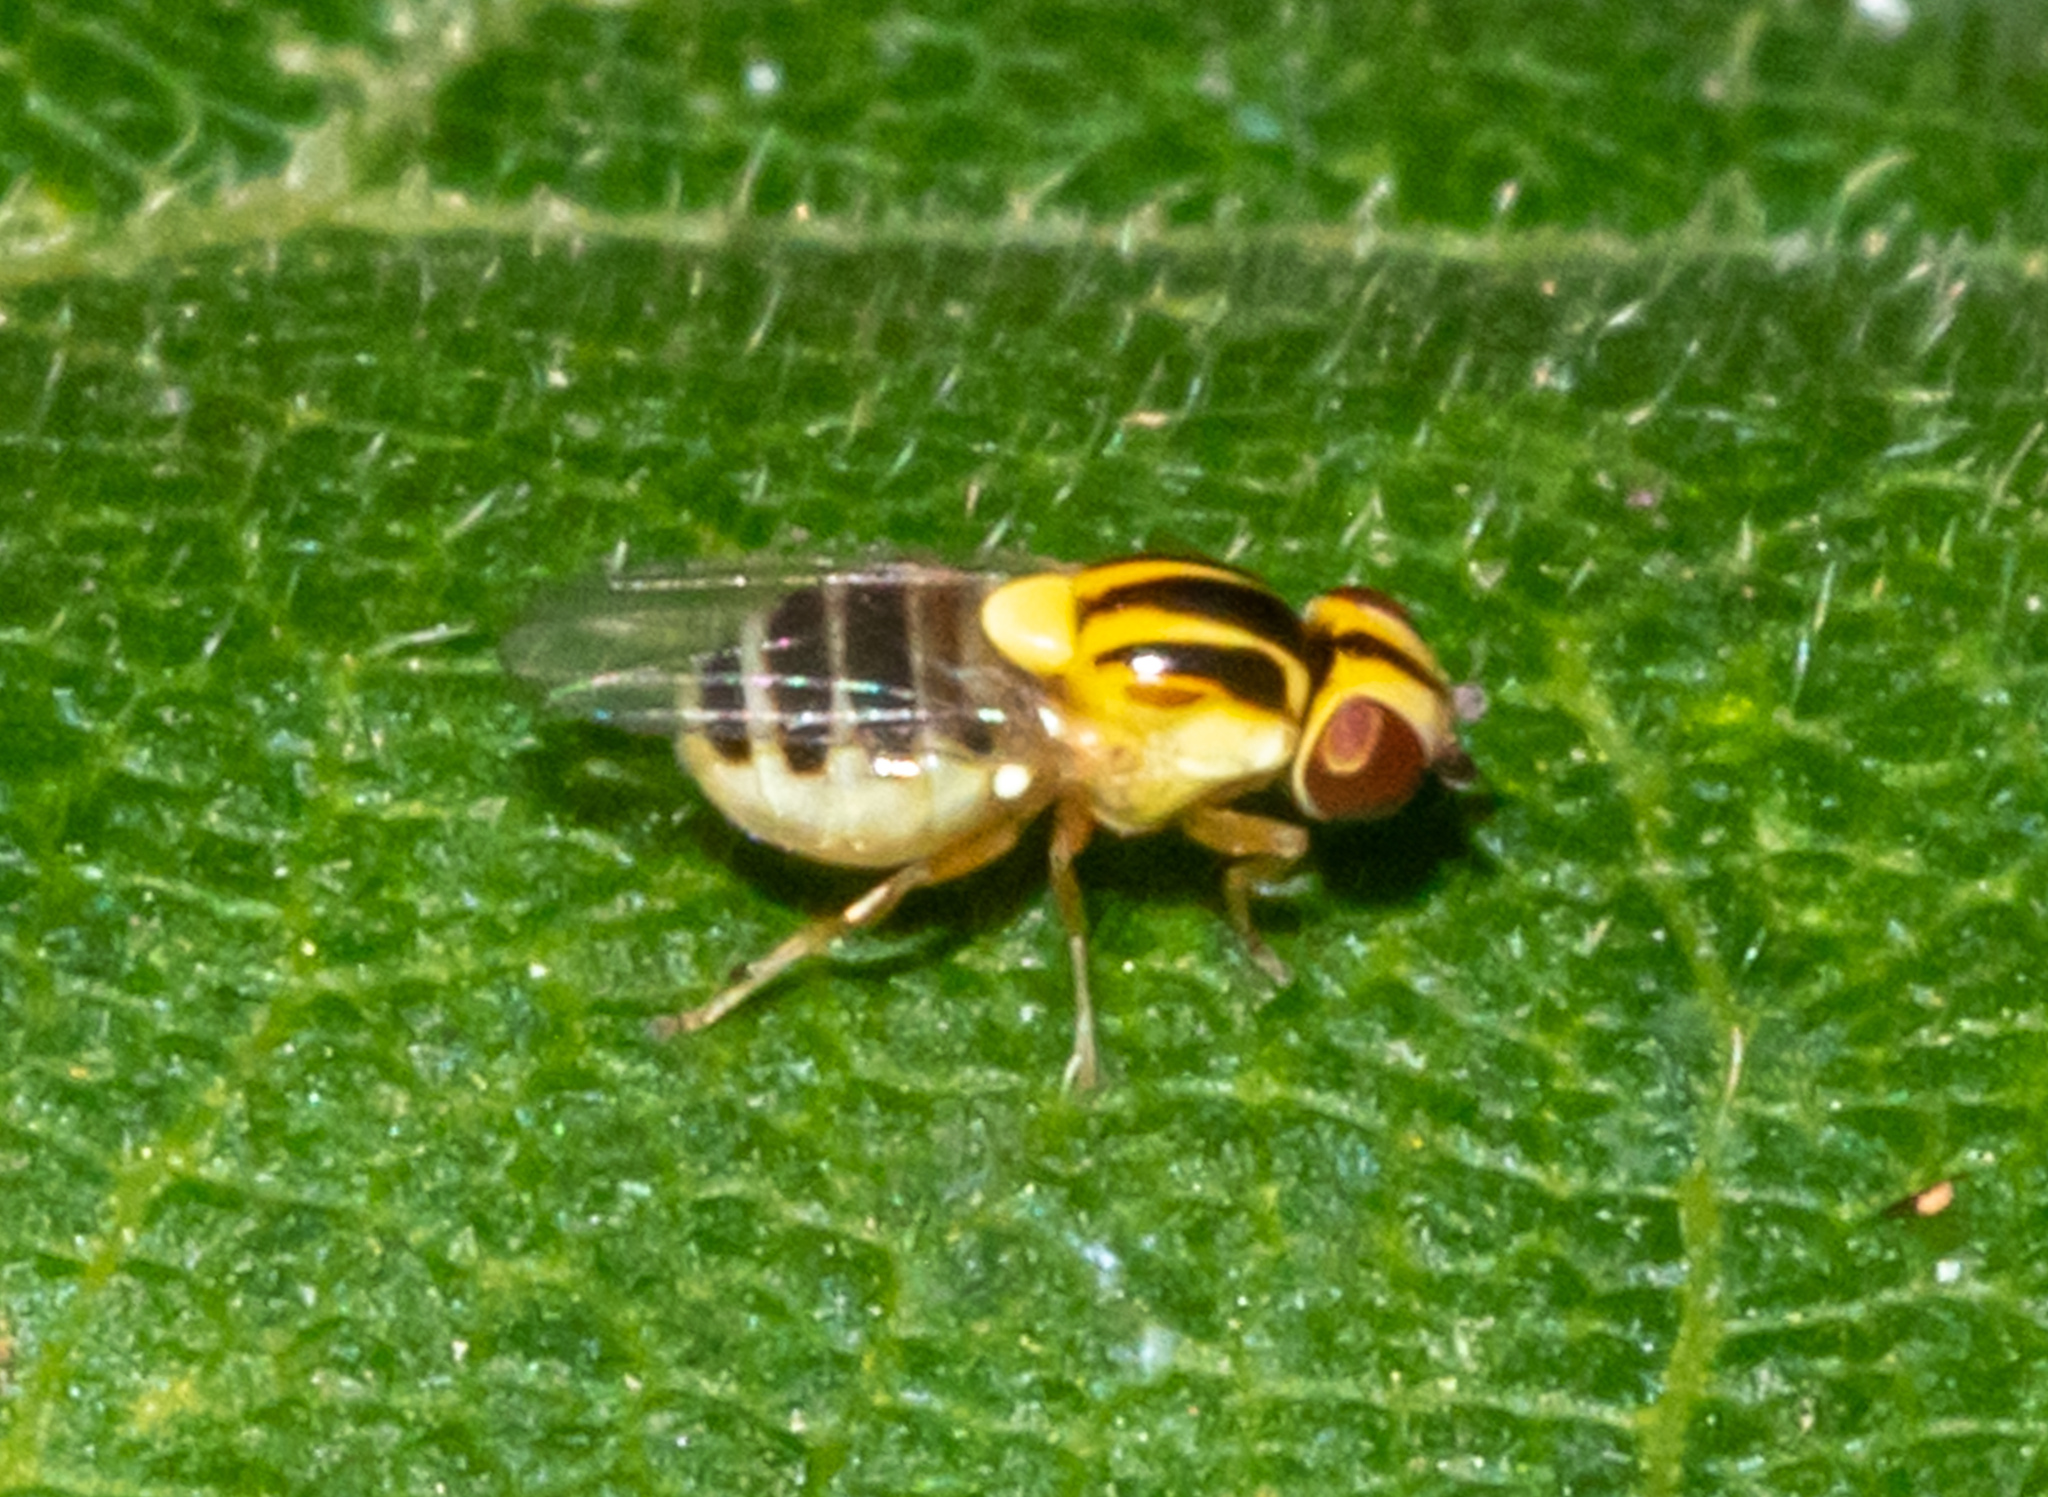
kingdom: Animalia
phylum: Arthropoda
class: Insecta
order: Diptera
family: Chloropidae
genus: Thaumatomyia
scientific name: Thaumatomyia glabra
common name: Chloropid fly
